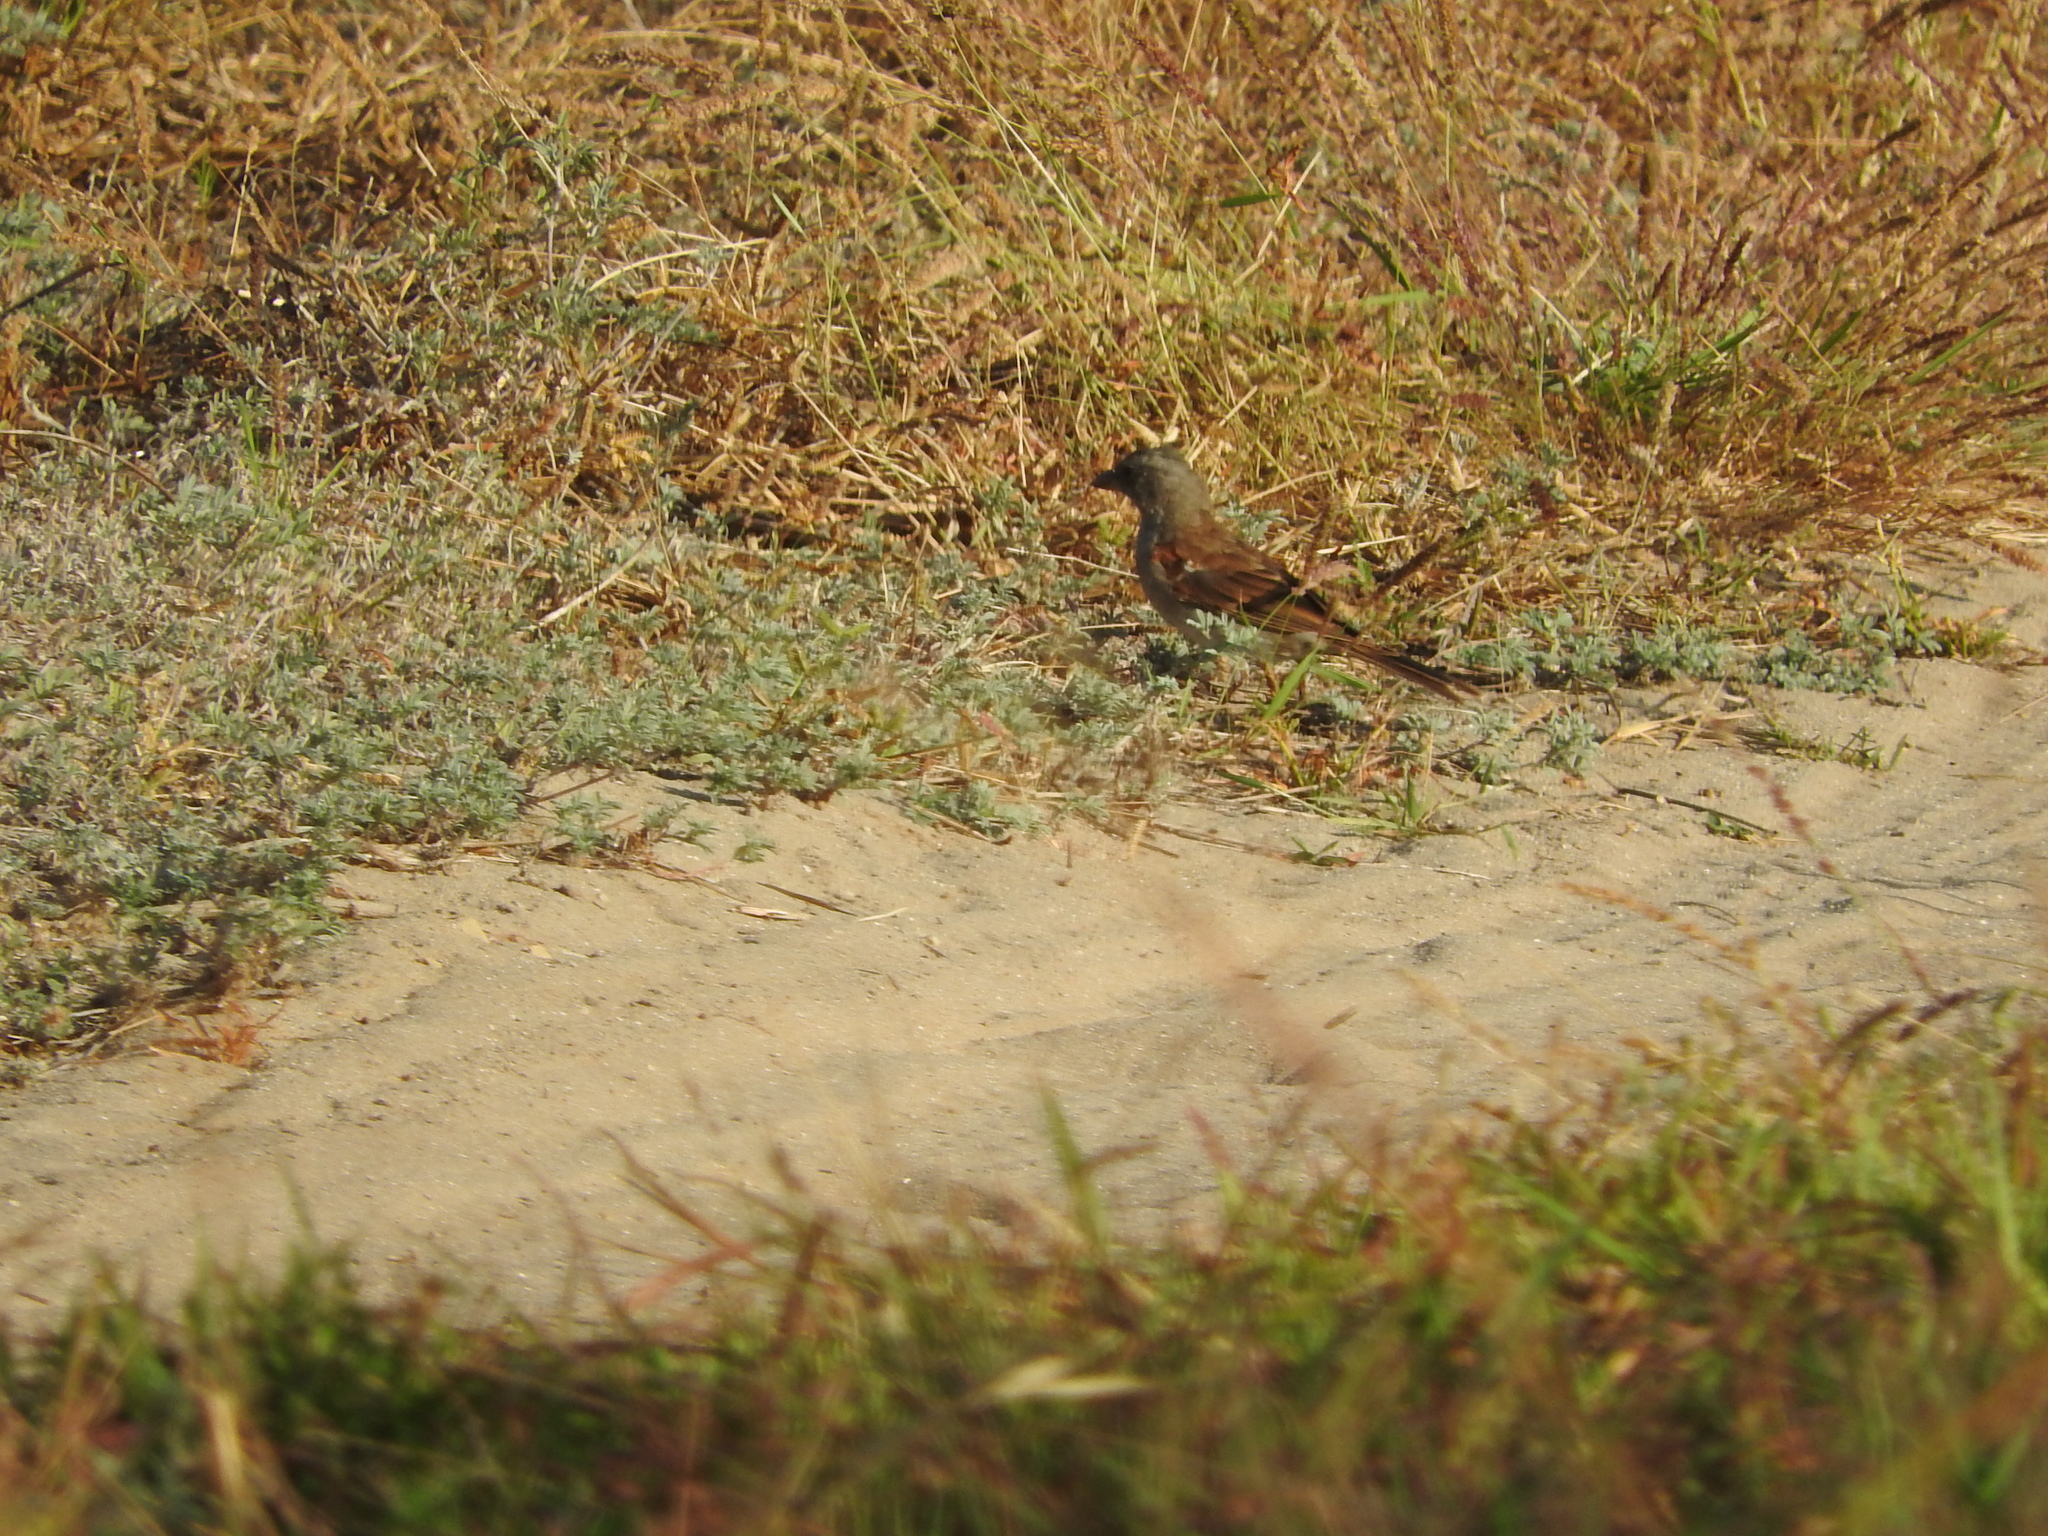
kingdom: Animalia
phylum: Chordata
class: Aves
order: Passeriformes
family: Passeridae
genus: Passer
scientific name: Passer diffusus
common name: Southern grey-headed sparrow
